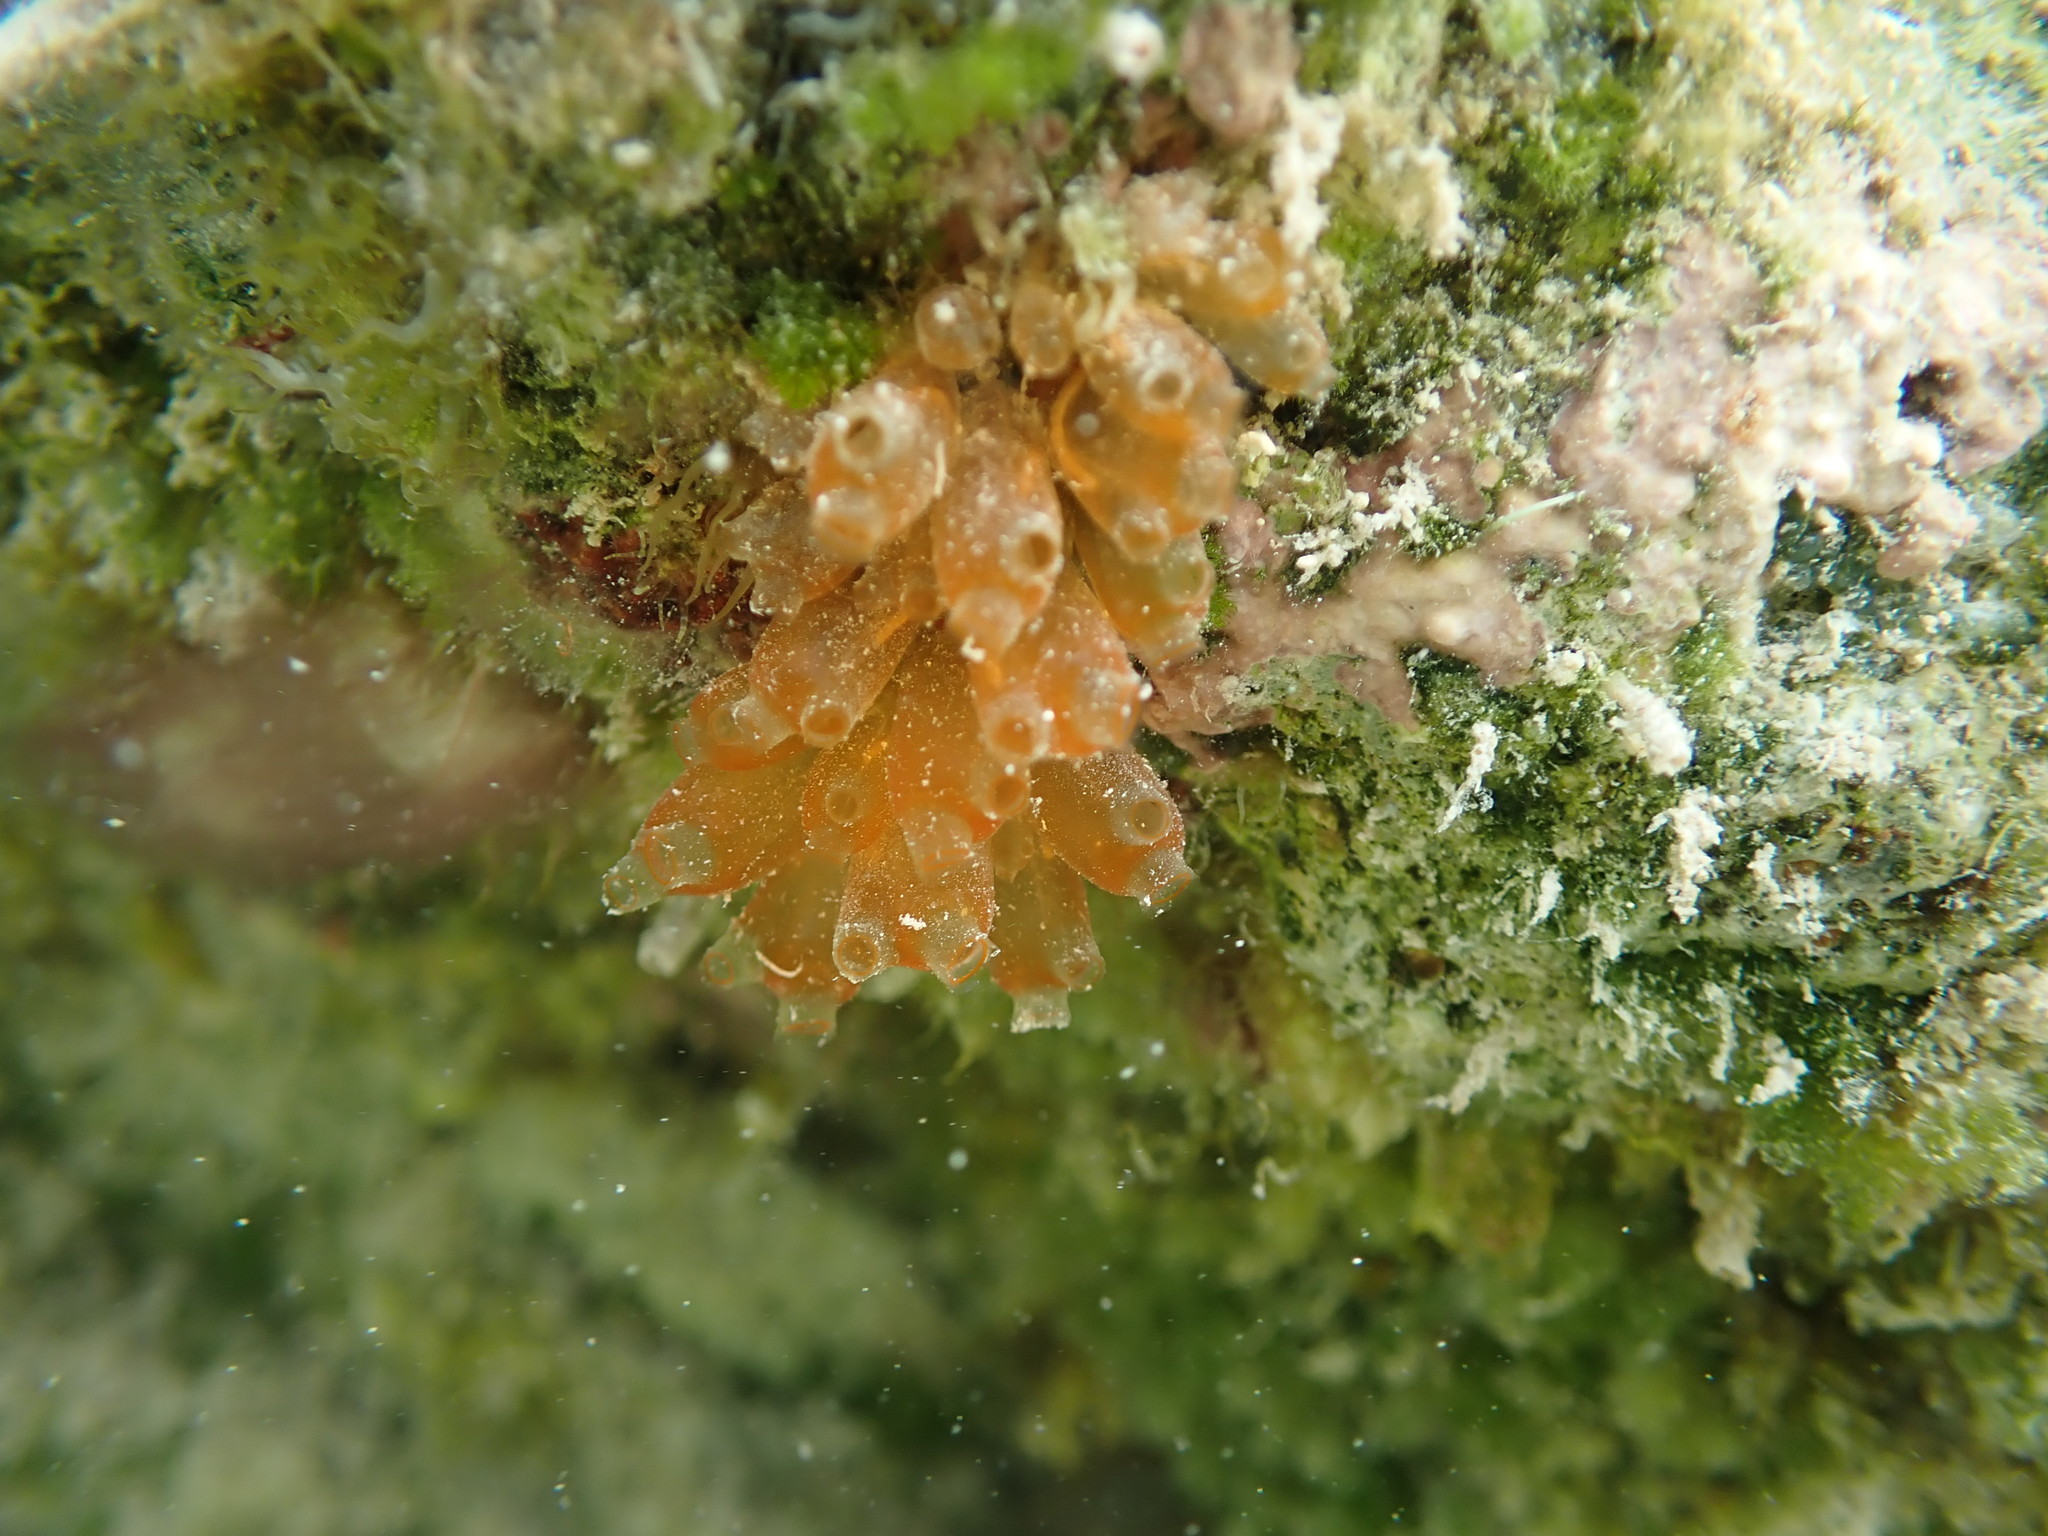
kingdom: Animalia
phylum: Chordata
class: Ascidiacea
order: Phlebobranchia
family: Perophoridae
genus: Ecteinascidia
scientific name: Ecteinascidia turbinata
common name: Mangrove tunicate
